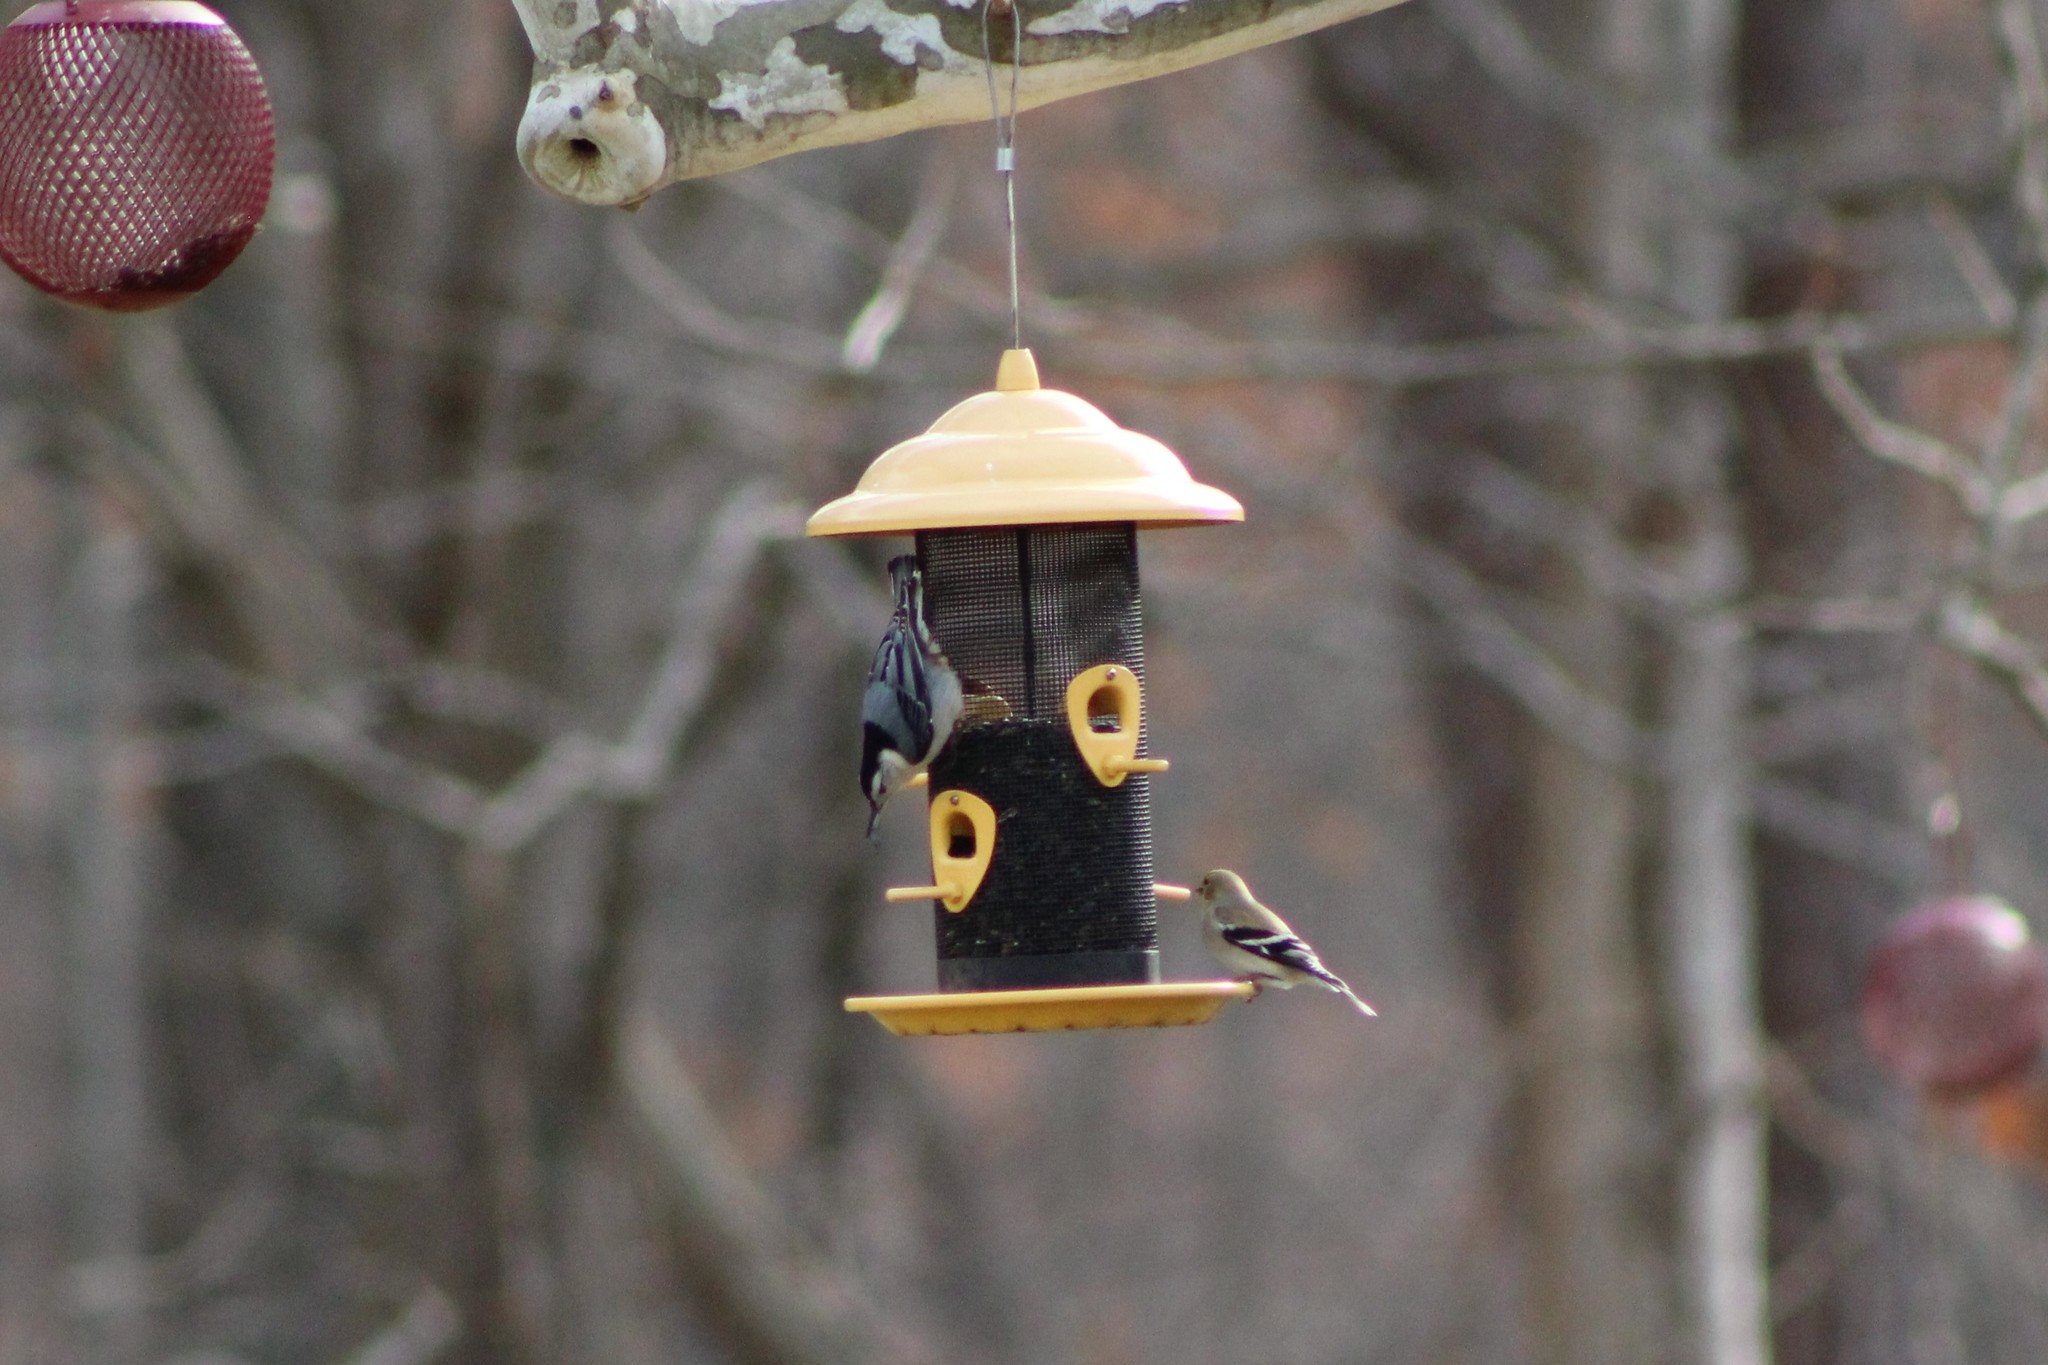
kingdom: Animalia
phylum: Chordata
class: Aves
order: Passeriformes
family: Fringillidae
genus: Spinus
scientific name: Spinus tristis
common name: American goldfinch
